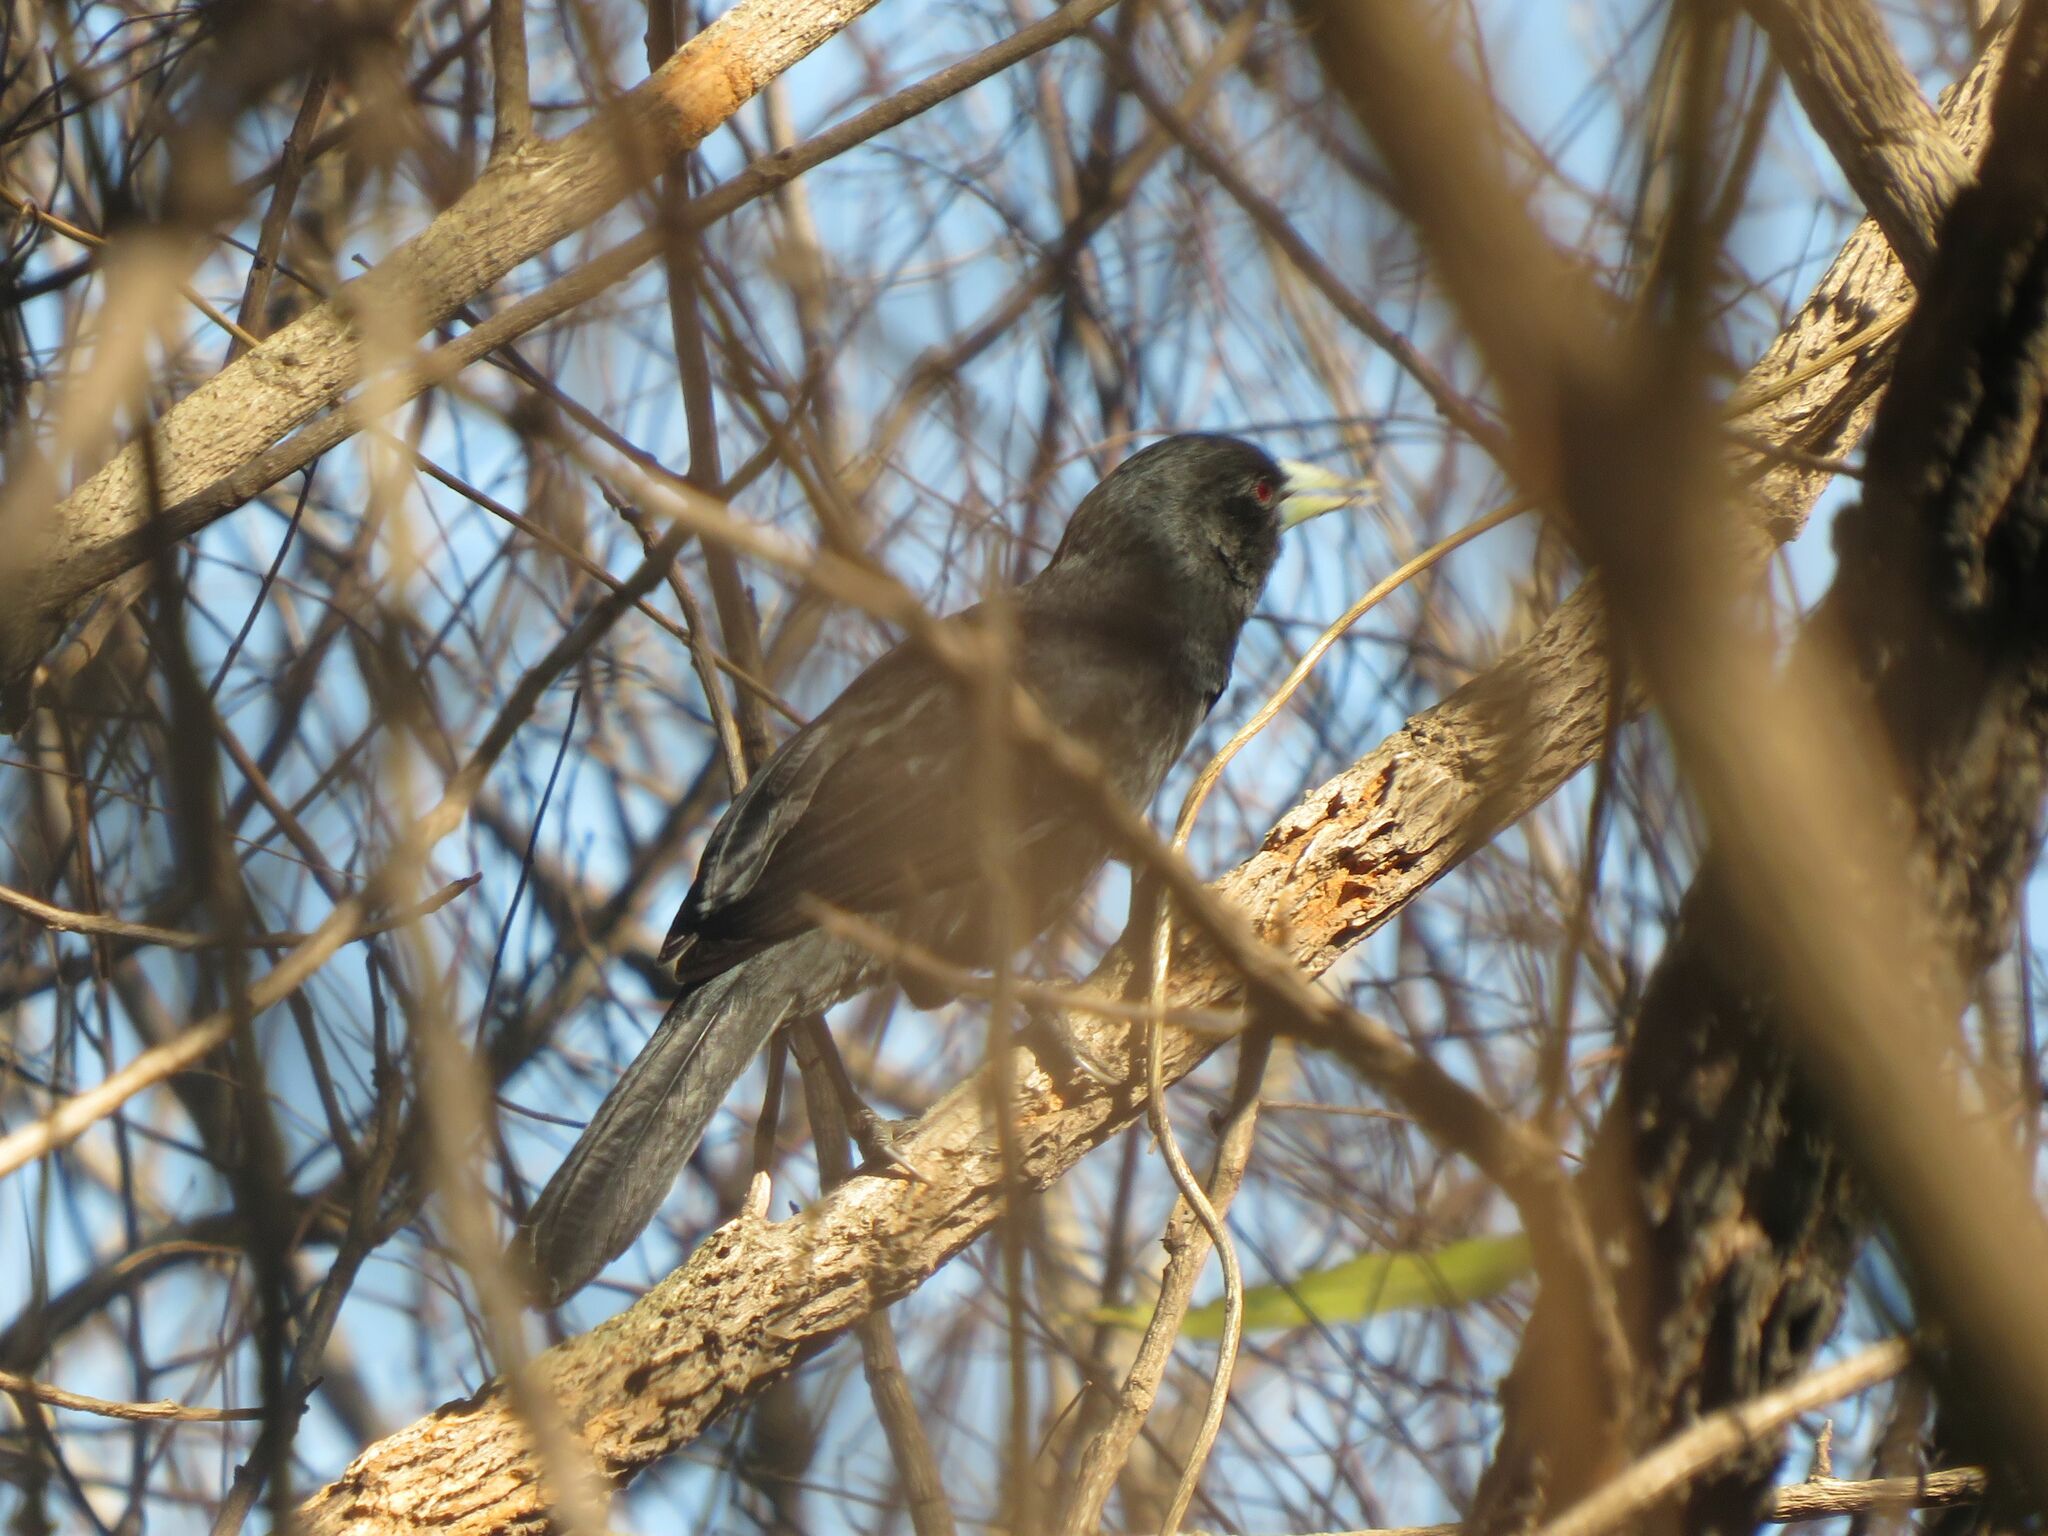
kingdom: Animalia
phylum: Chordata
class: Aves
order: Passeriformes
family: Icteridae
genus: Cacicus
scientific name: Cacicus solitarius
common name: Solitary cacique
